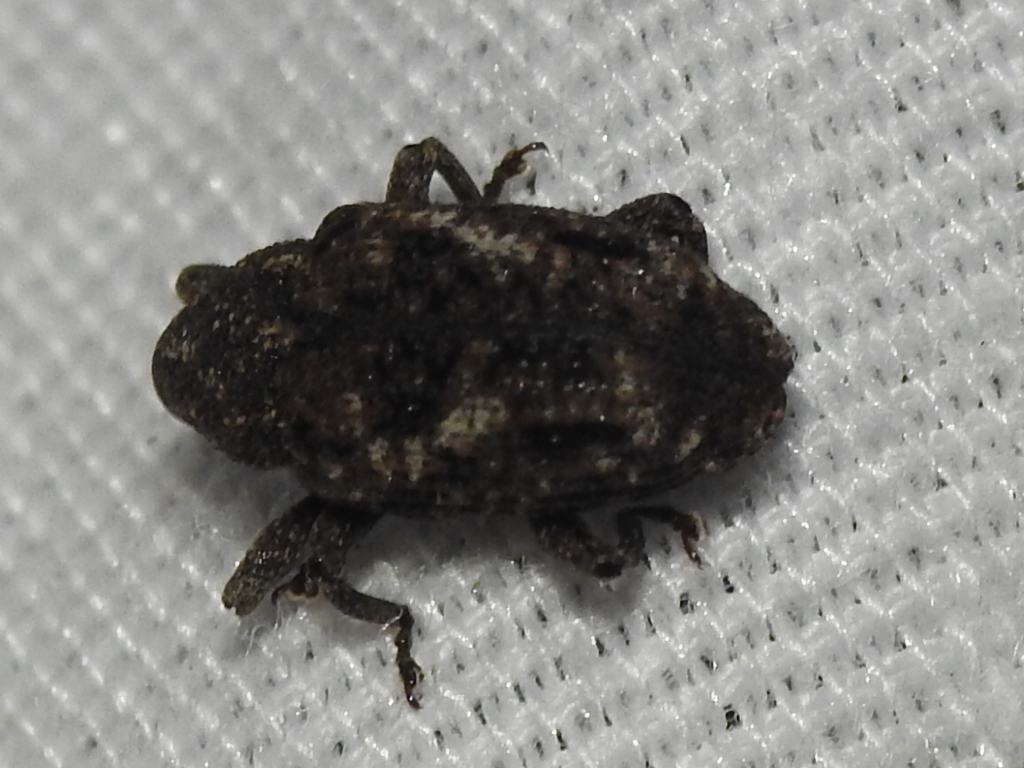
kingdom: Animalia
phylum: Arthropoda
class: Insecta
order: Coleoptera
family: Curculionidae
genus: Cophes
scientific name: Cophes oblongus
